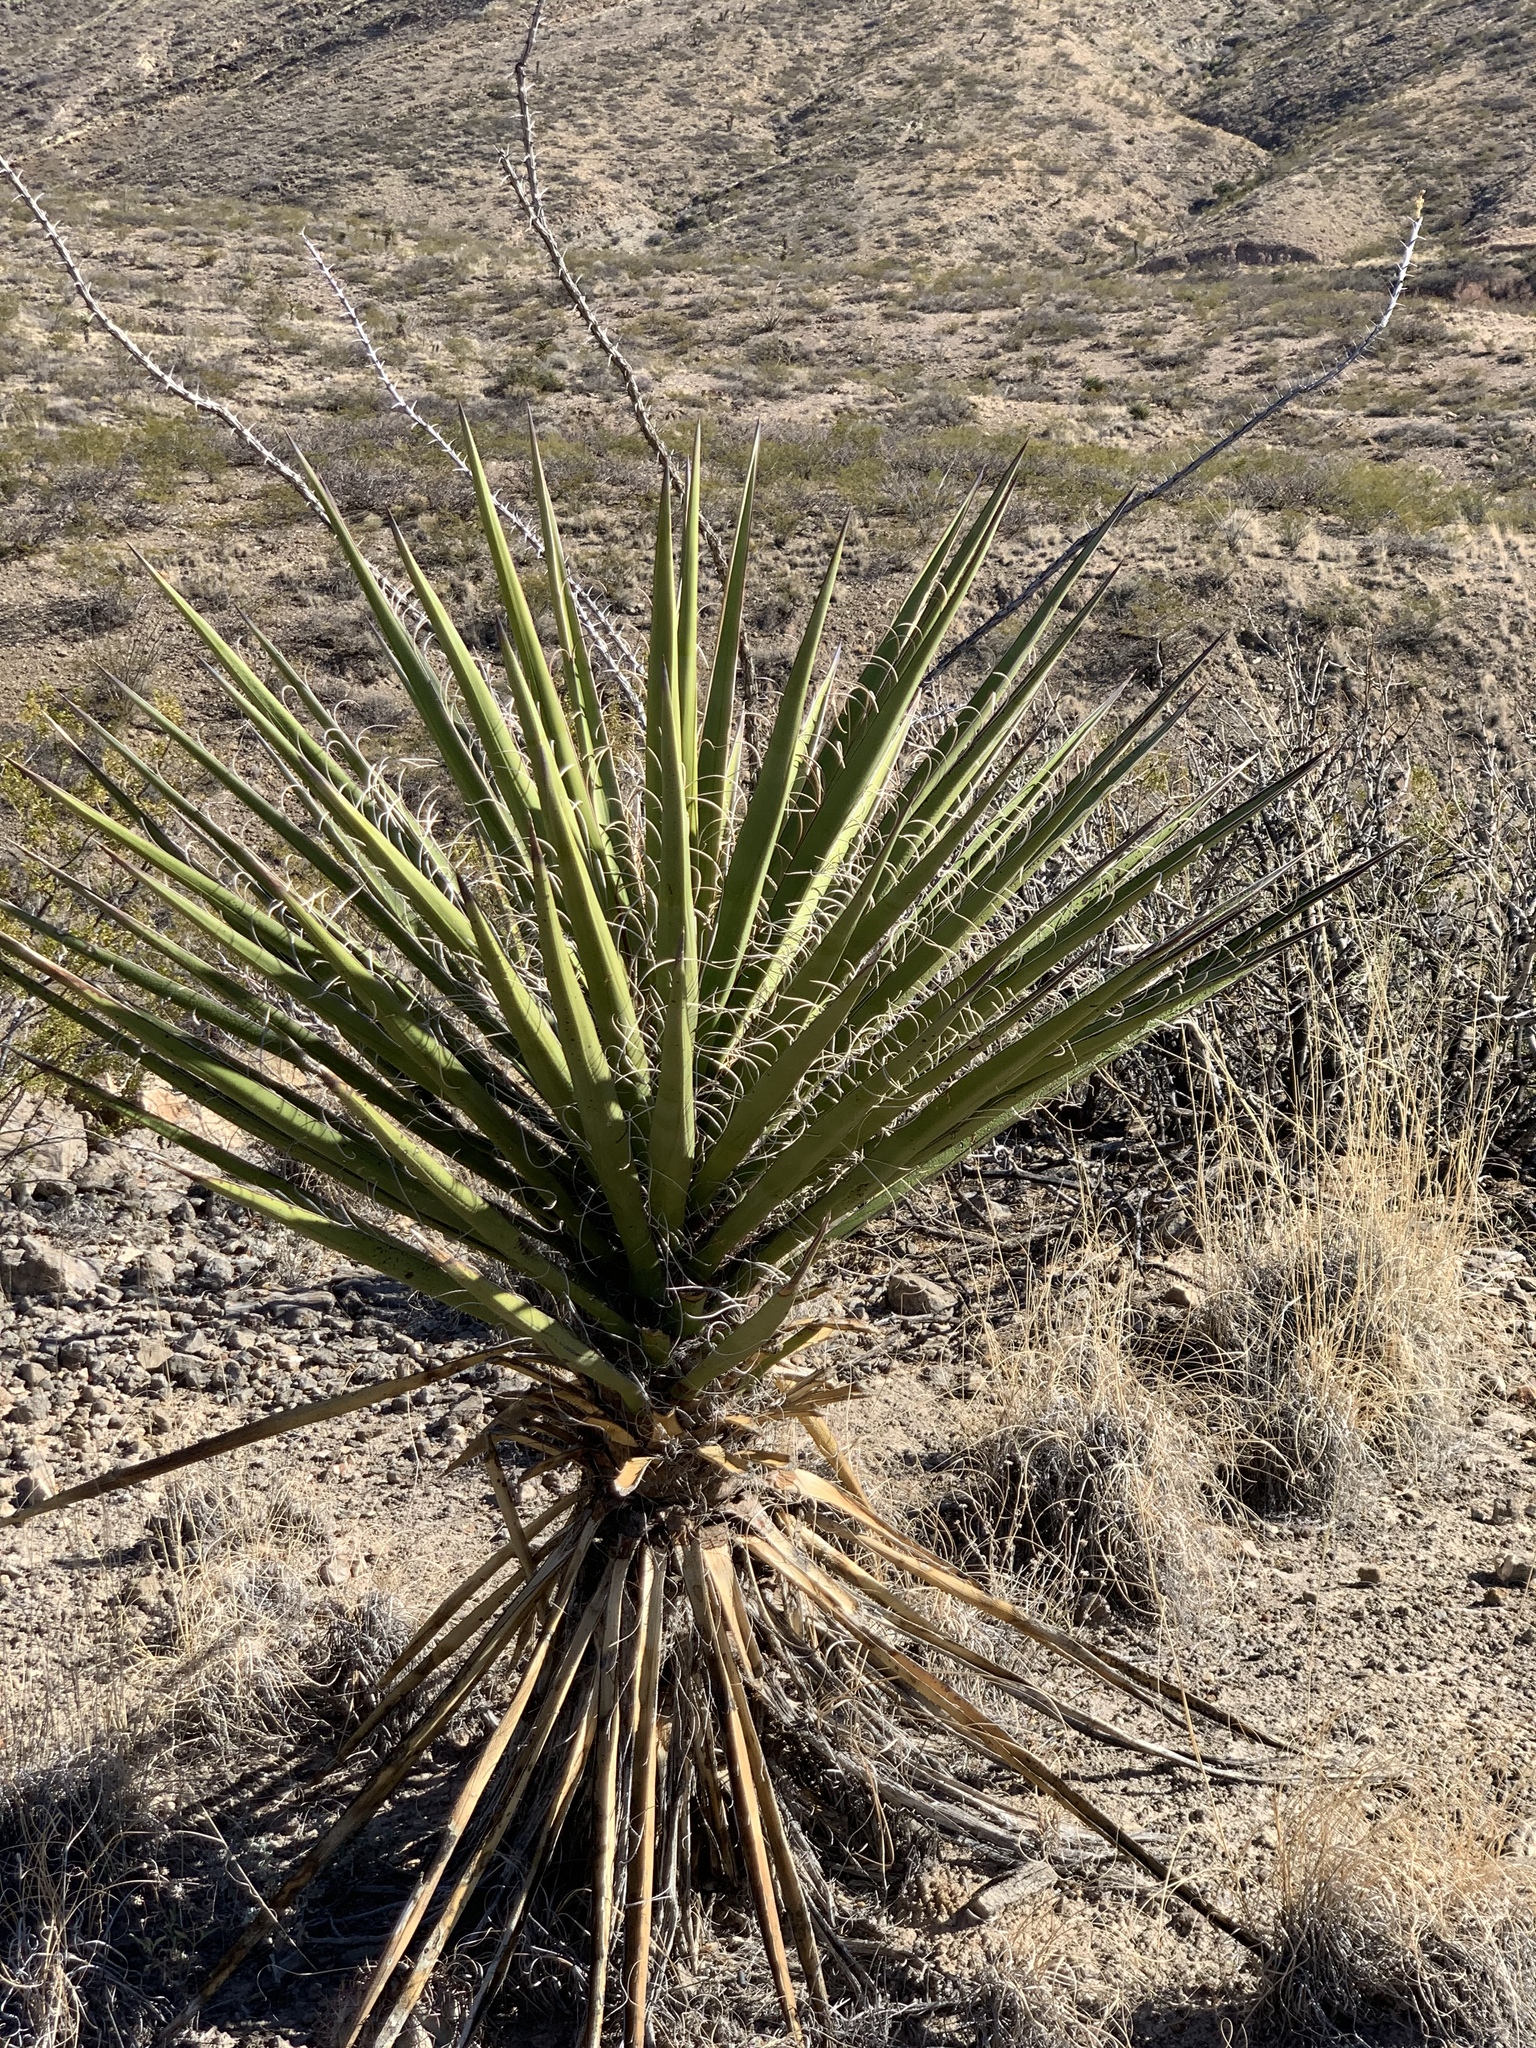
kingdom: Plantae
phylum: Tracheophyta
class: Liliopsida
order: Asparagales
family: Asparagaceae
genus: Yucca
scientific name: Yucca treculiana
